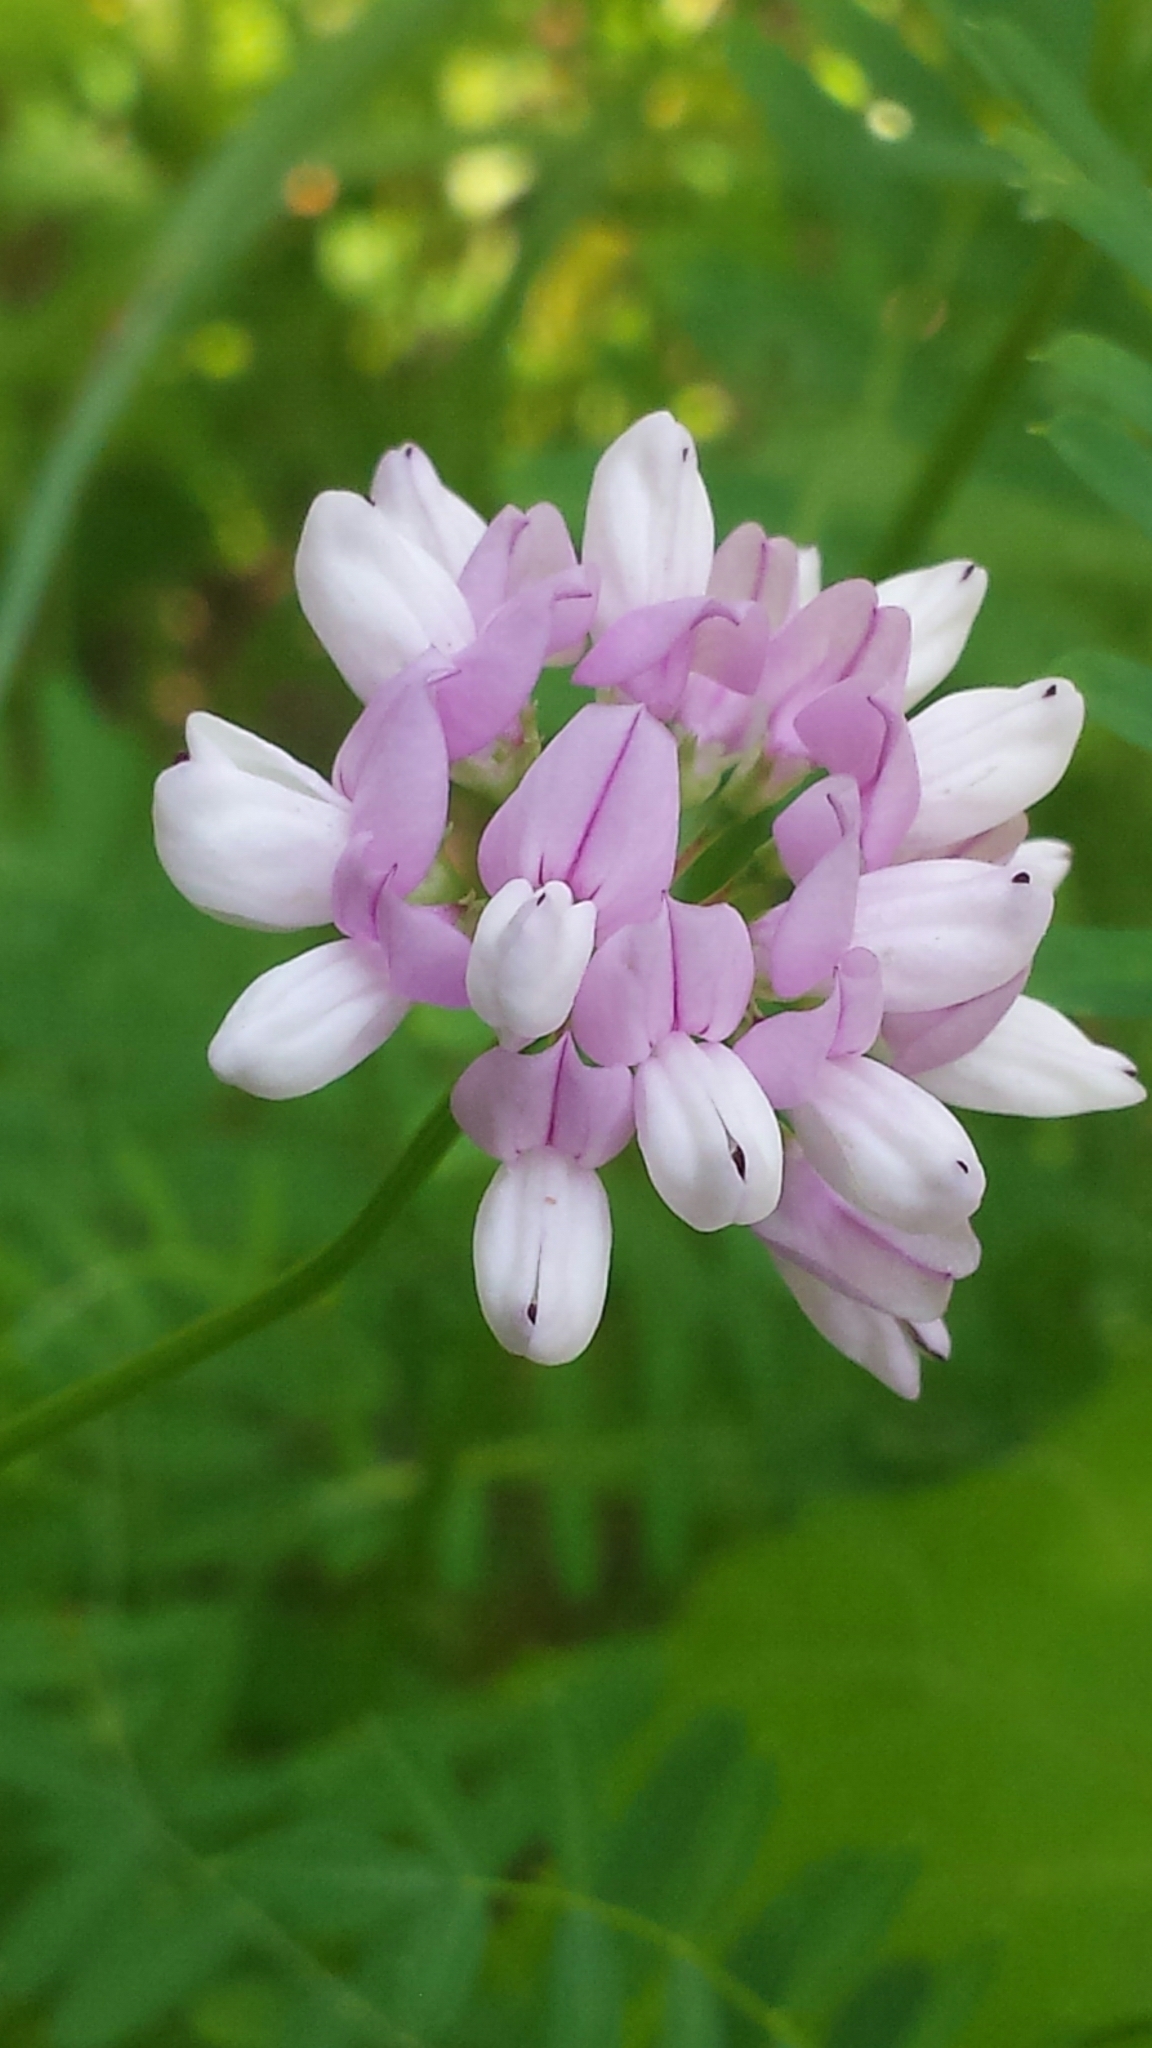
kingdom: Plantae
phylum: Tracheophyta
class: Magnoliopsida
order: Fabales
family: Fabaceae
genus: Coronilla
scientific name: Coronilla varia
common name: Crownvetch
